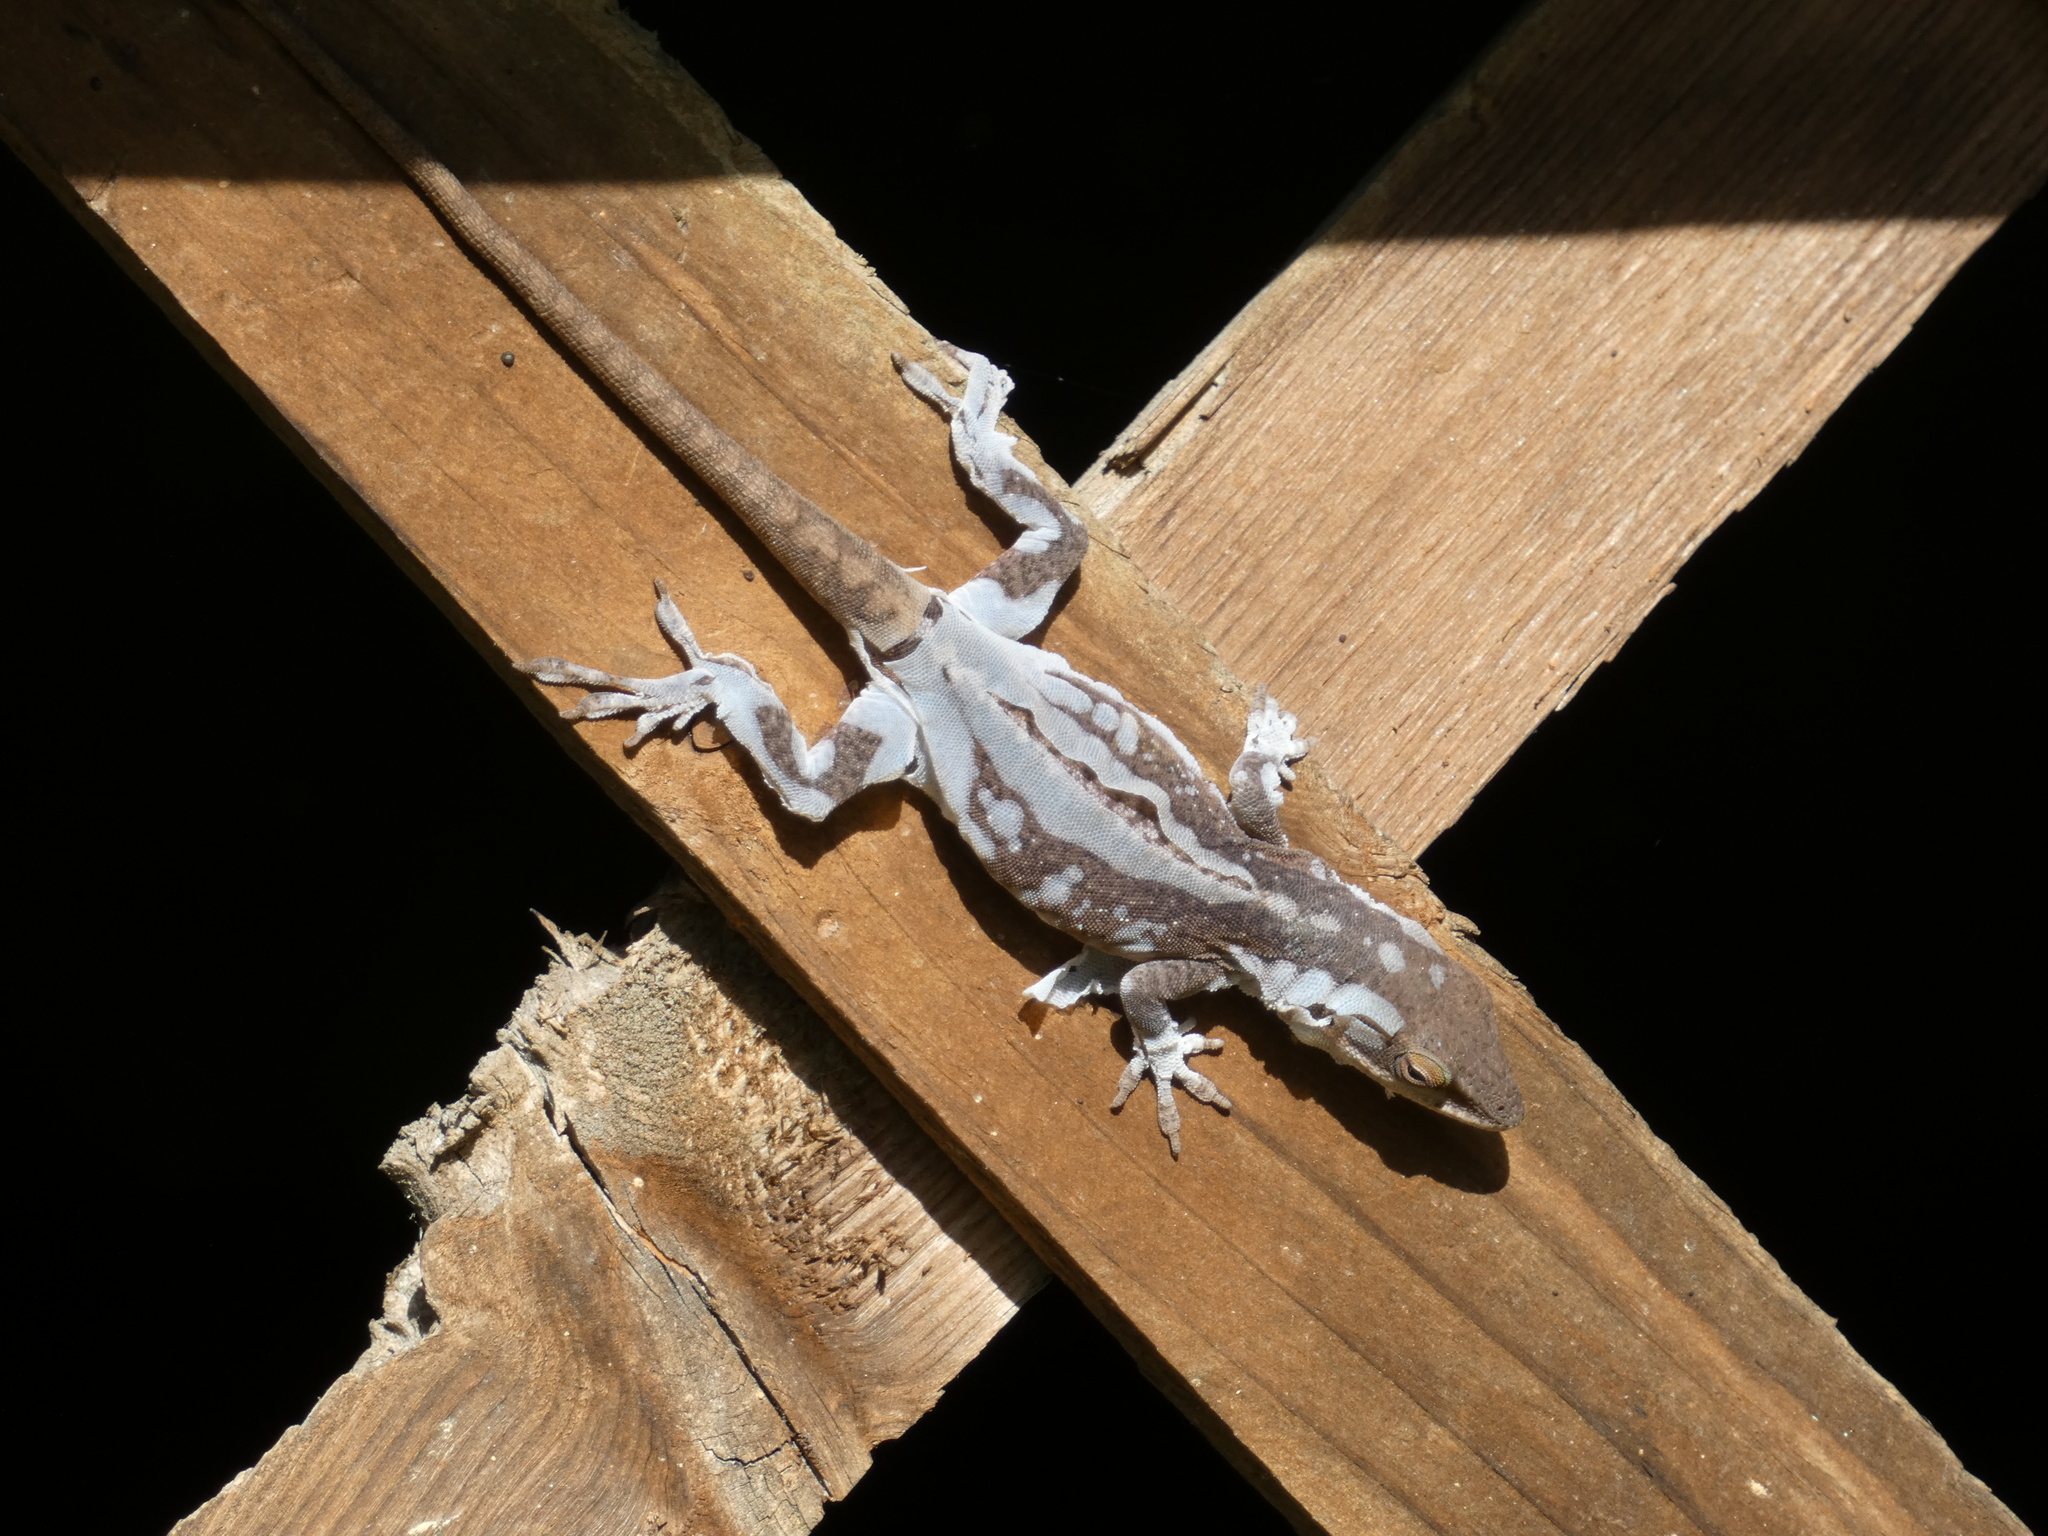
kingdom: Animalia
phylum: Chordata
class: Squamata
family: Dactyloidae
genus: Anolis
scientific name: Anolis carolinensis
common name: Green anole
